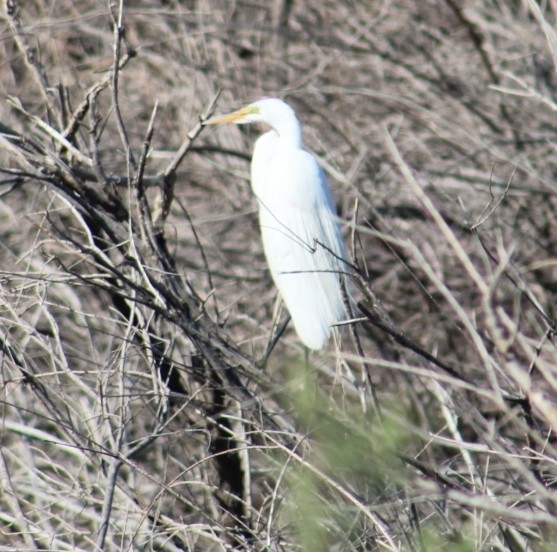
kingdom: Animalia
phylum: Chordata
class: Aves
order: Pelecaniformes
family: Ardeidae
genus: Ardea
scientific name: Ardea alba
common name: Great egret
